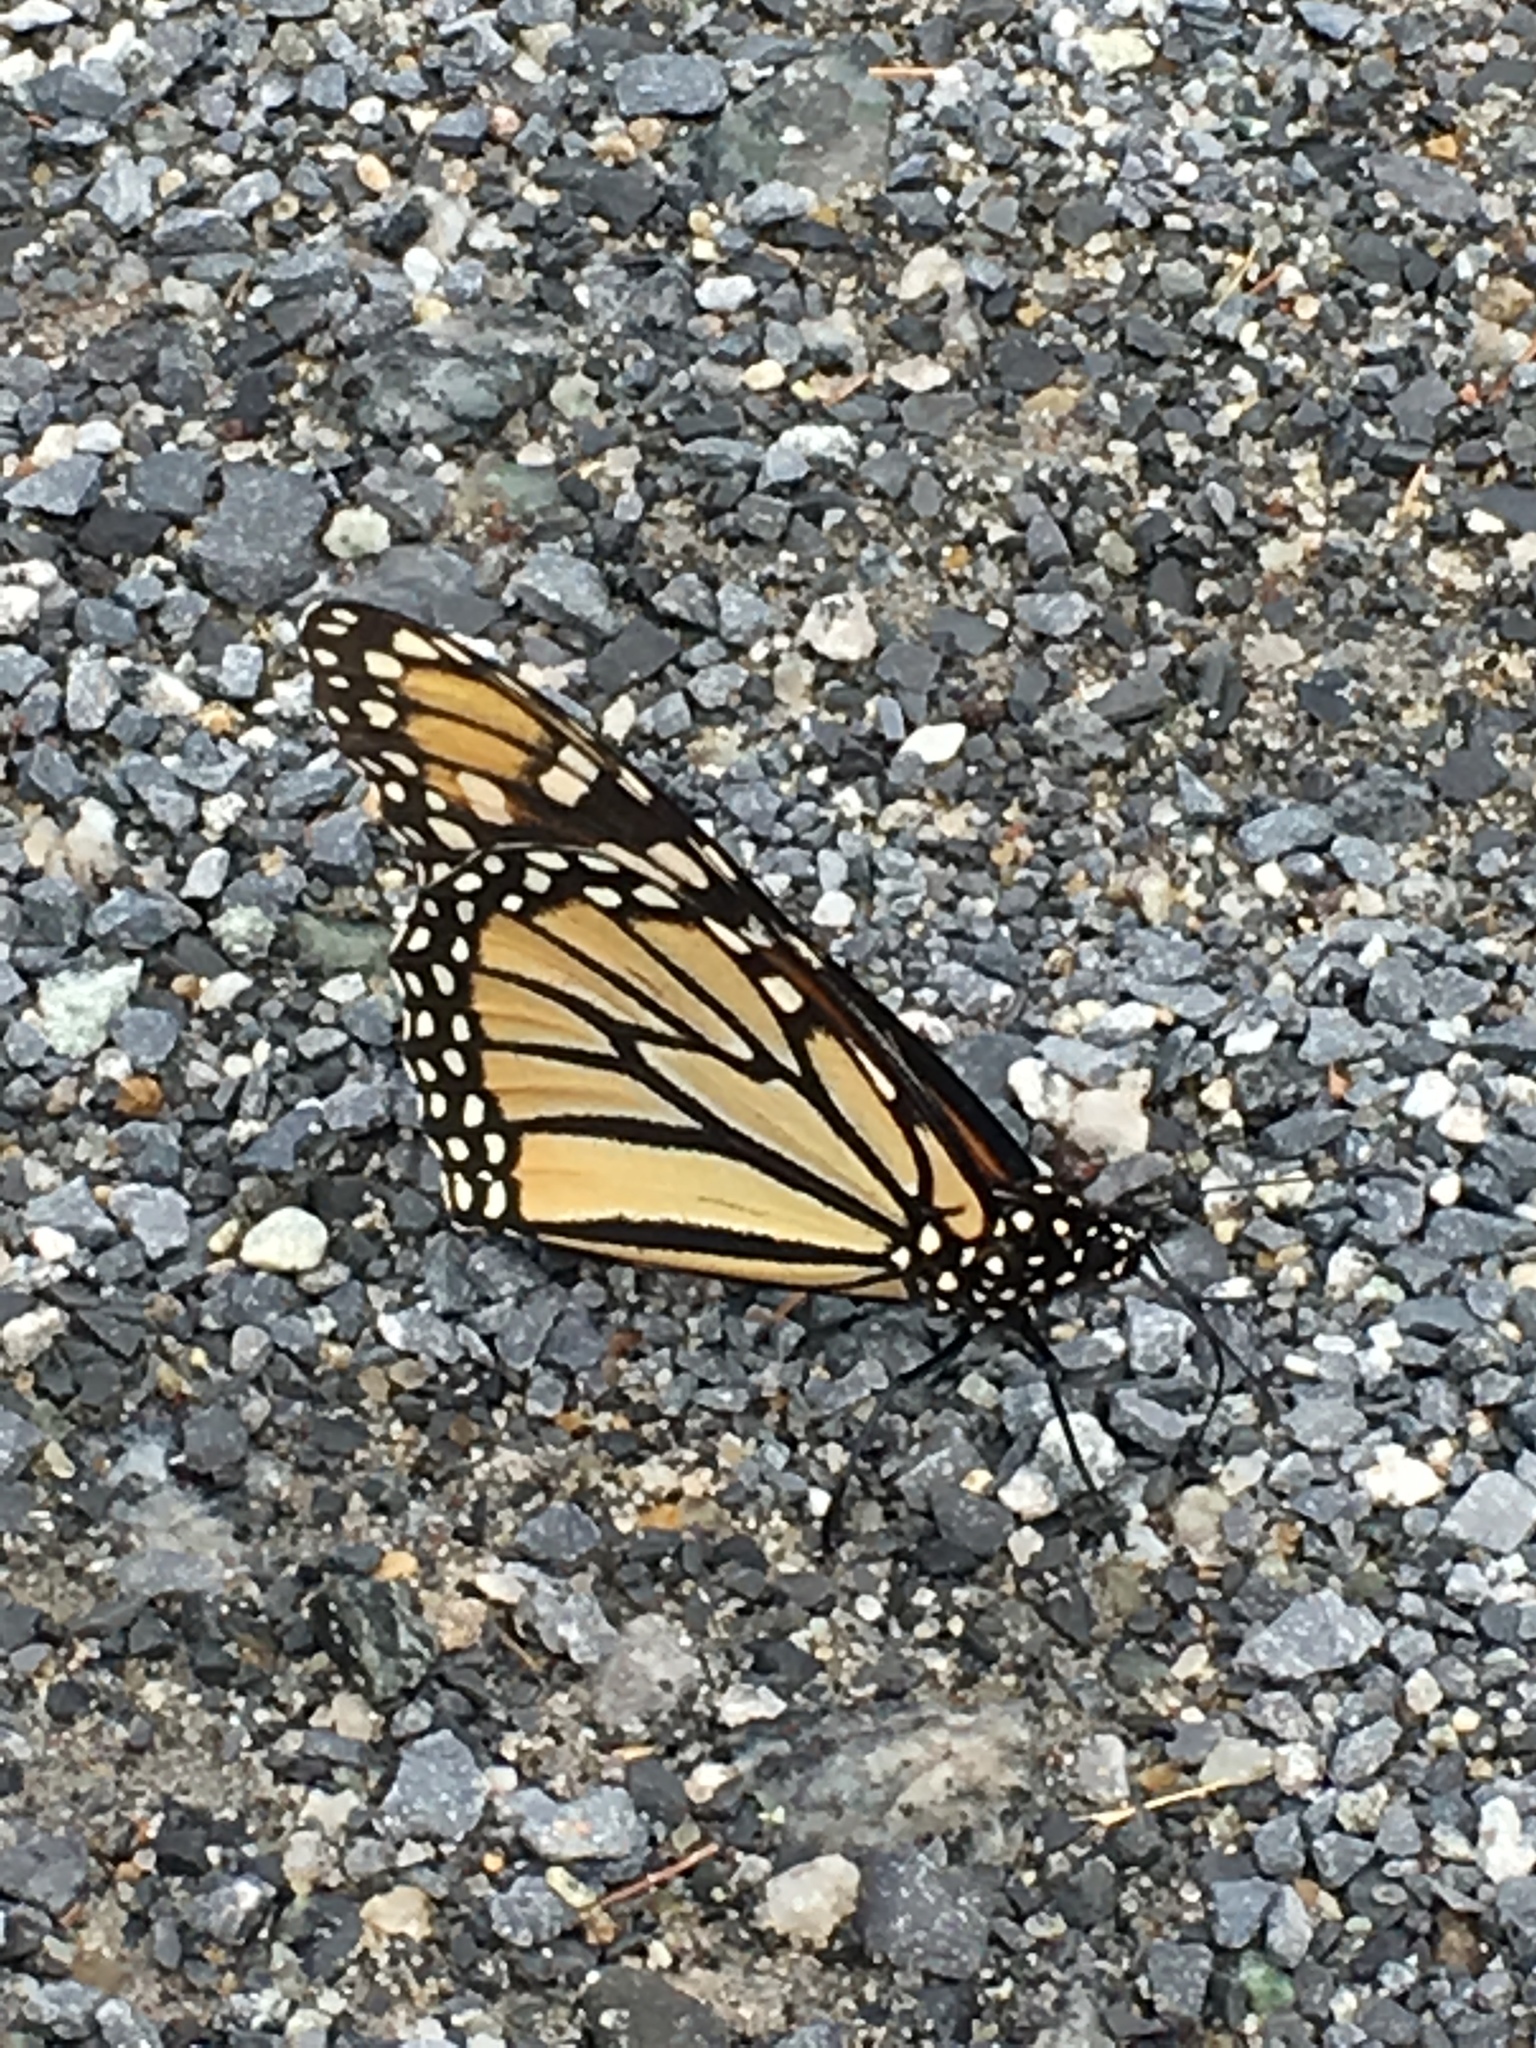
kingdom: Animalia
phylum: Arthropoda
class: Insecta
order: Lepidoptera
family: Nymphalidae
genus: Danaus
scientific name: Danaus plexippus
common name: Monarch
